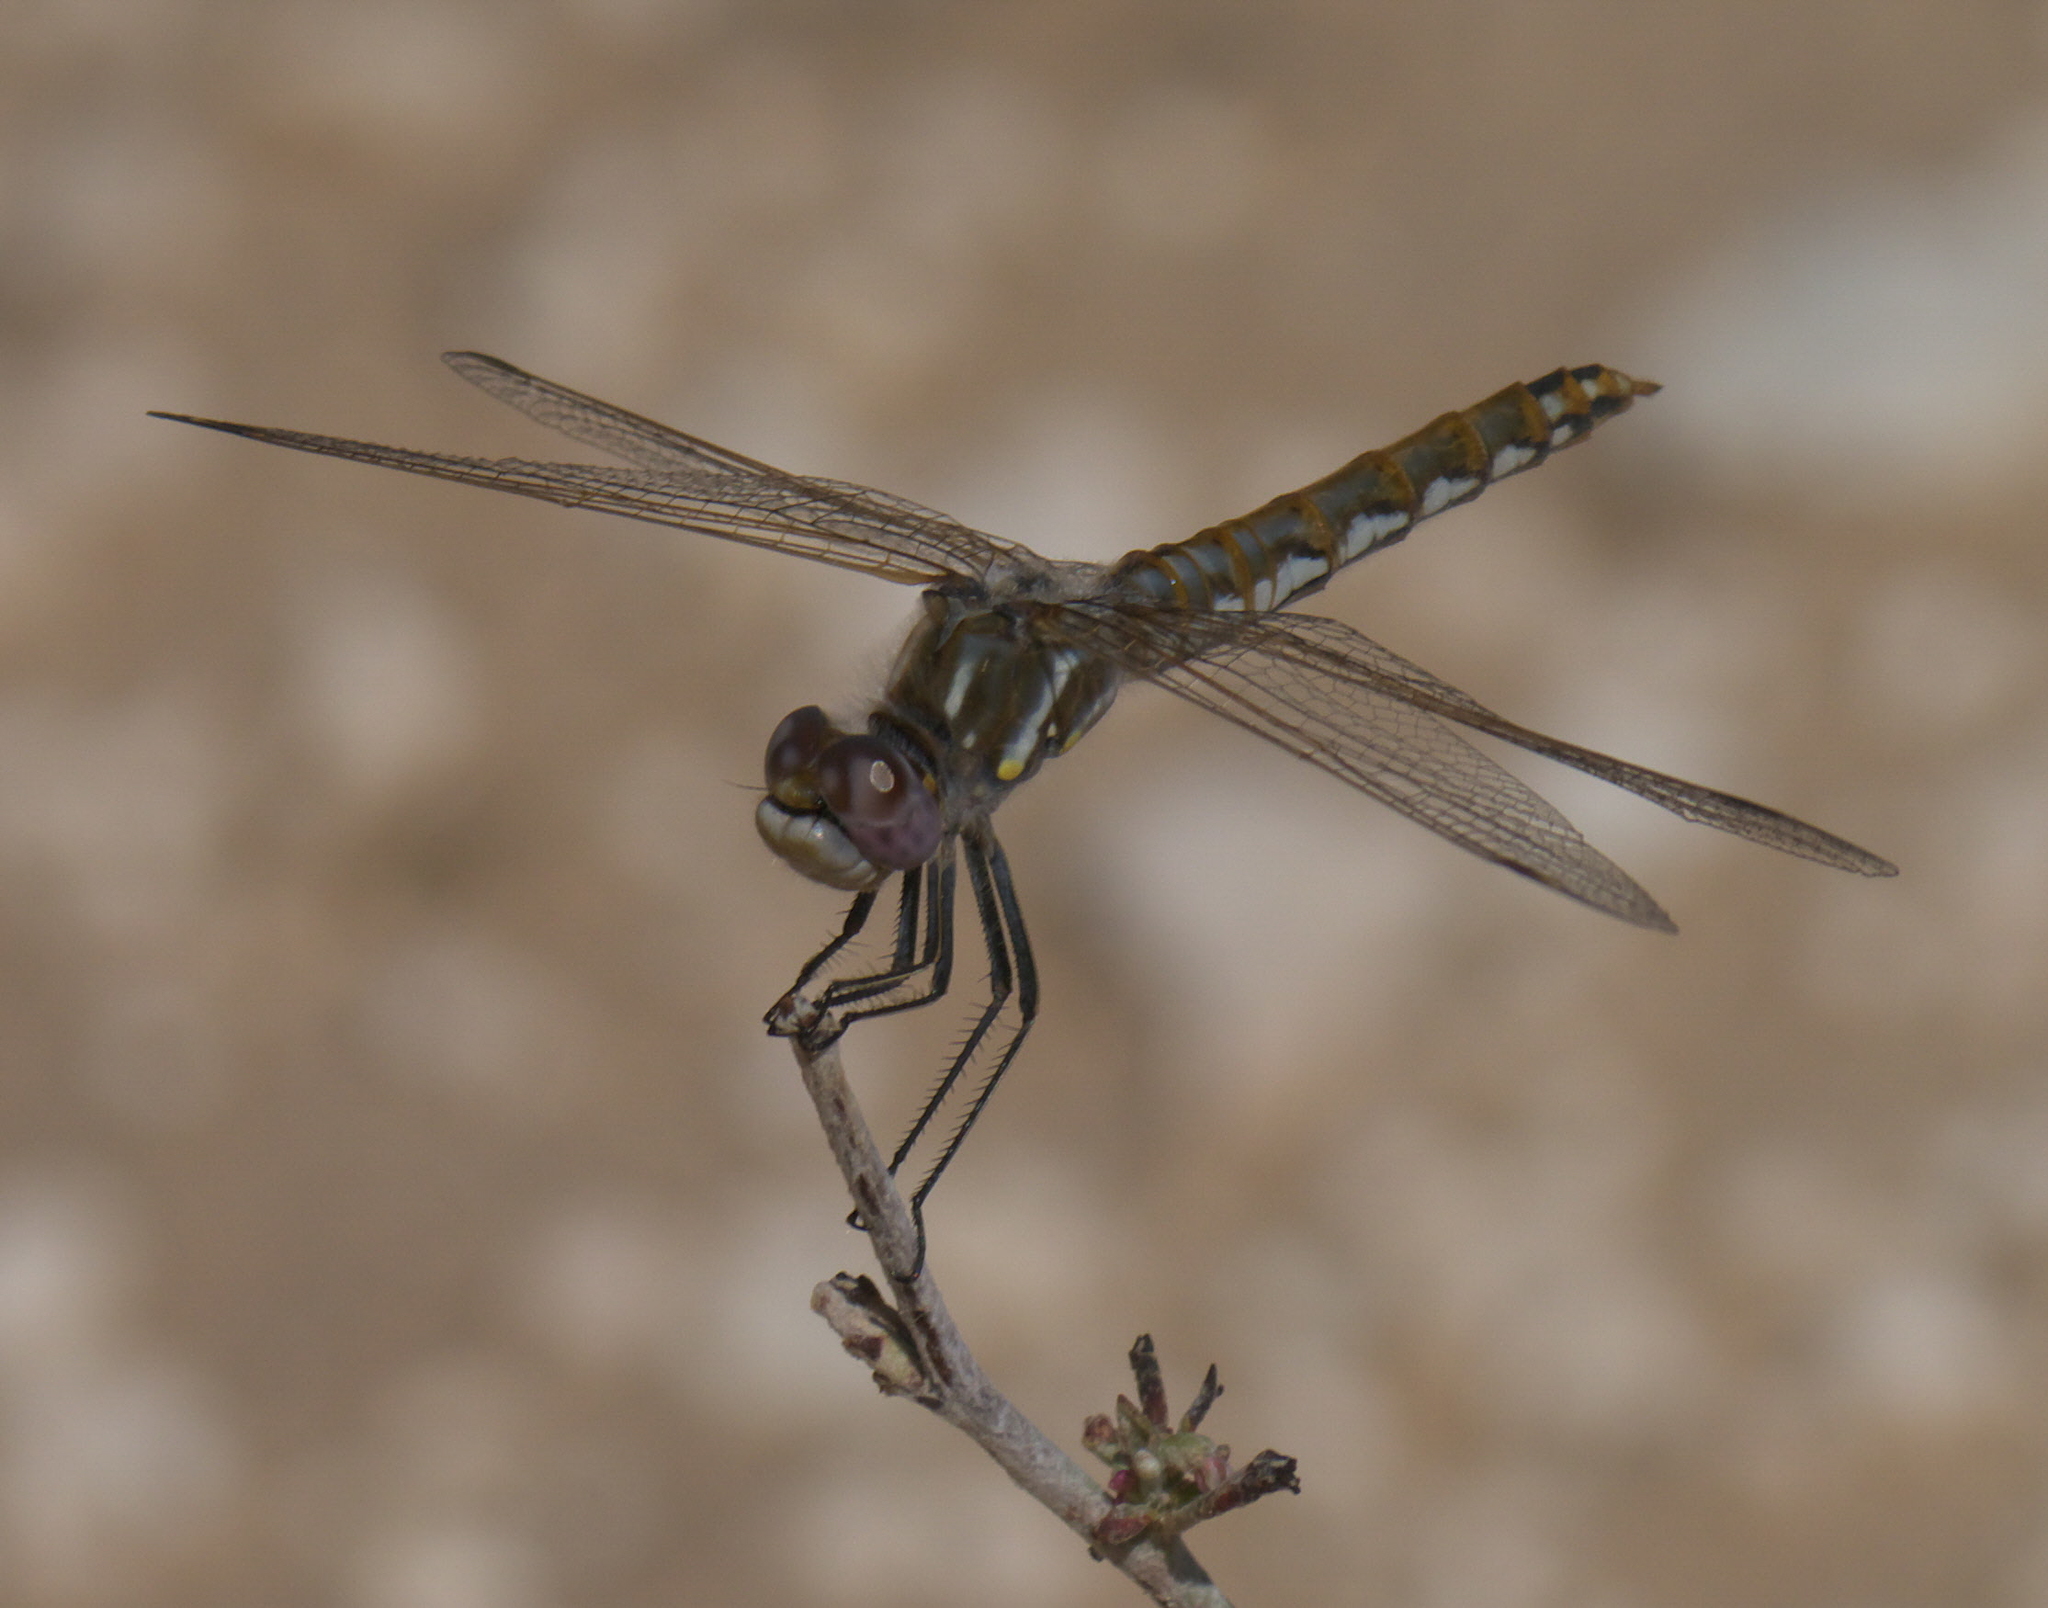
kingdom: Animalia
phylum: Arthropoda
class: Insecta
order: Odonata
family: Libellulidae
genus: Sympetrum
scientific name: Sympetrum corruptum
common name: Variegated meadowhawk
